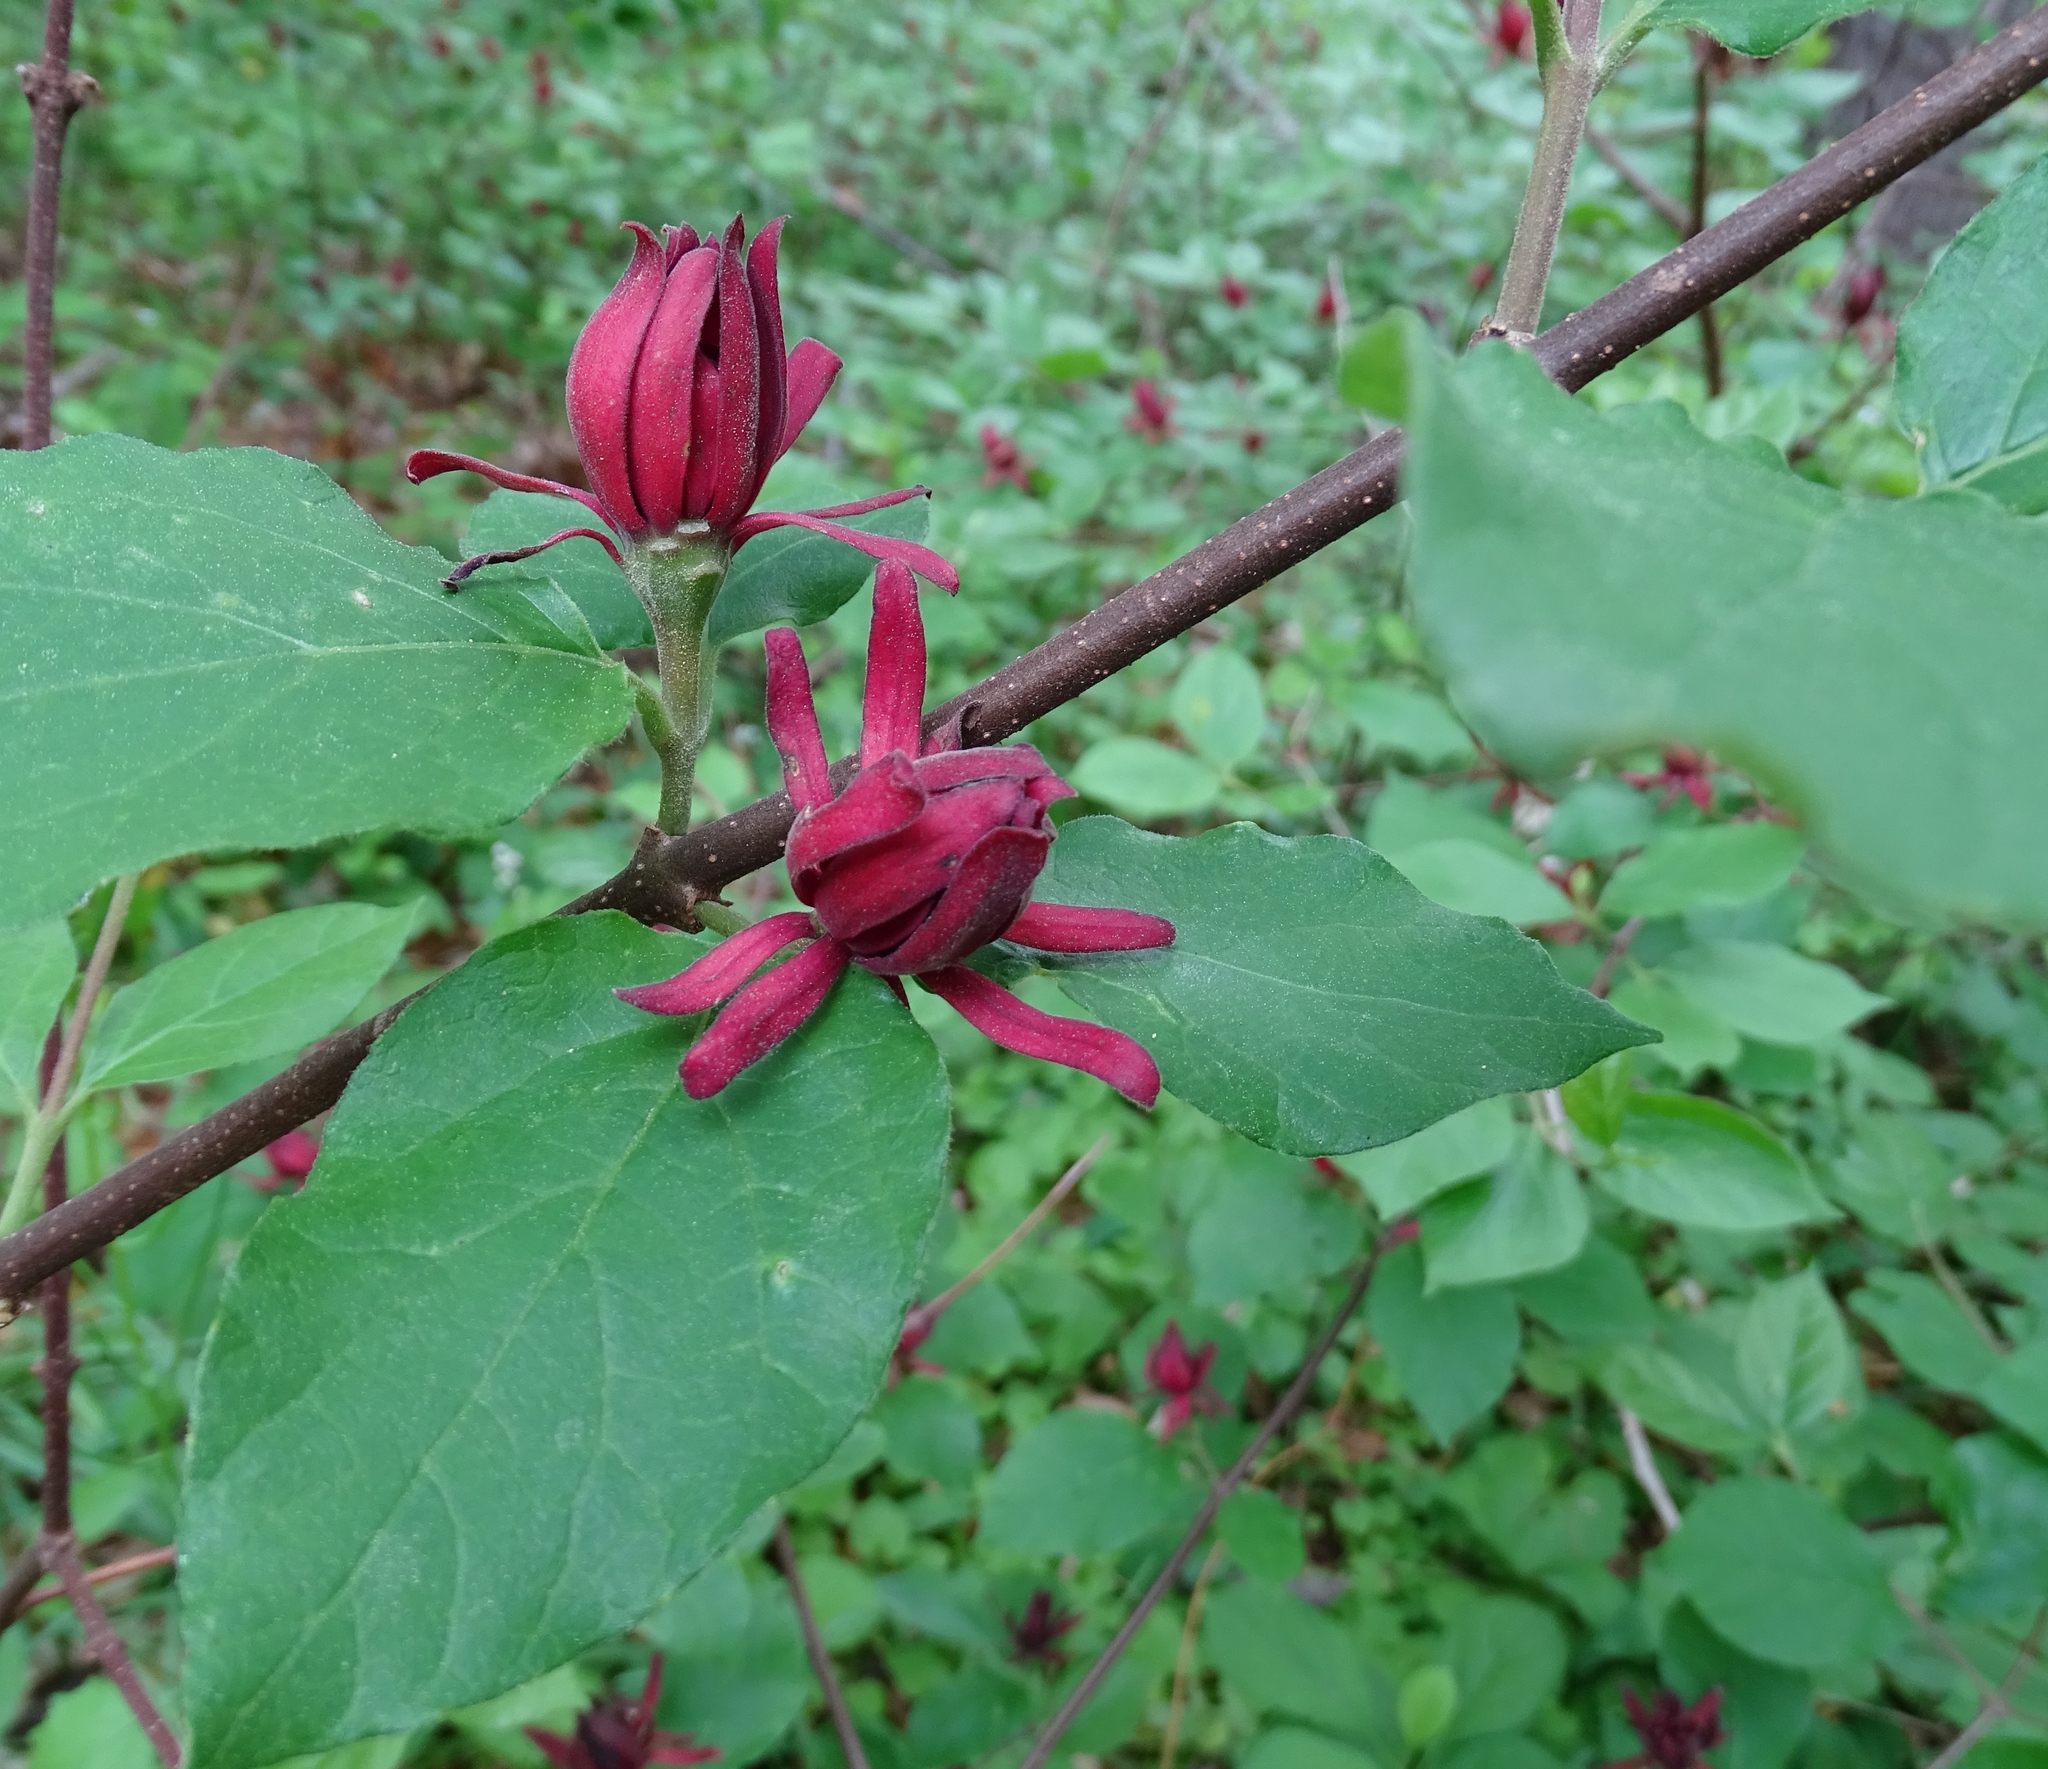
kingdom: Plantae
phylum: Tracheophyta
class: Magnoliopsida
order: Laurales
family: Calycanthaceae
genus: Calycanthus
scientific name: Calycanthus floridus
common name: Carolina-allspice
